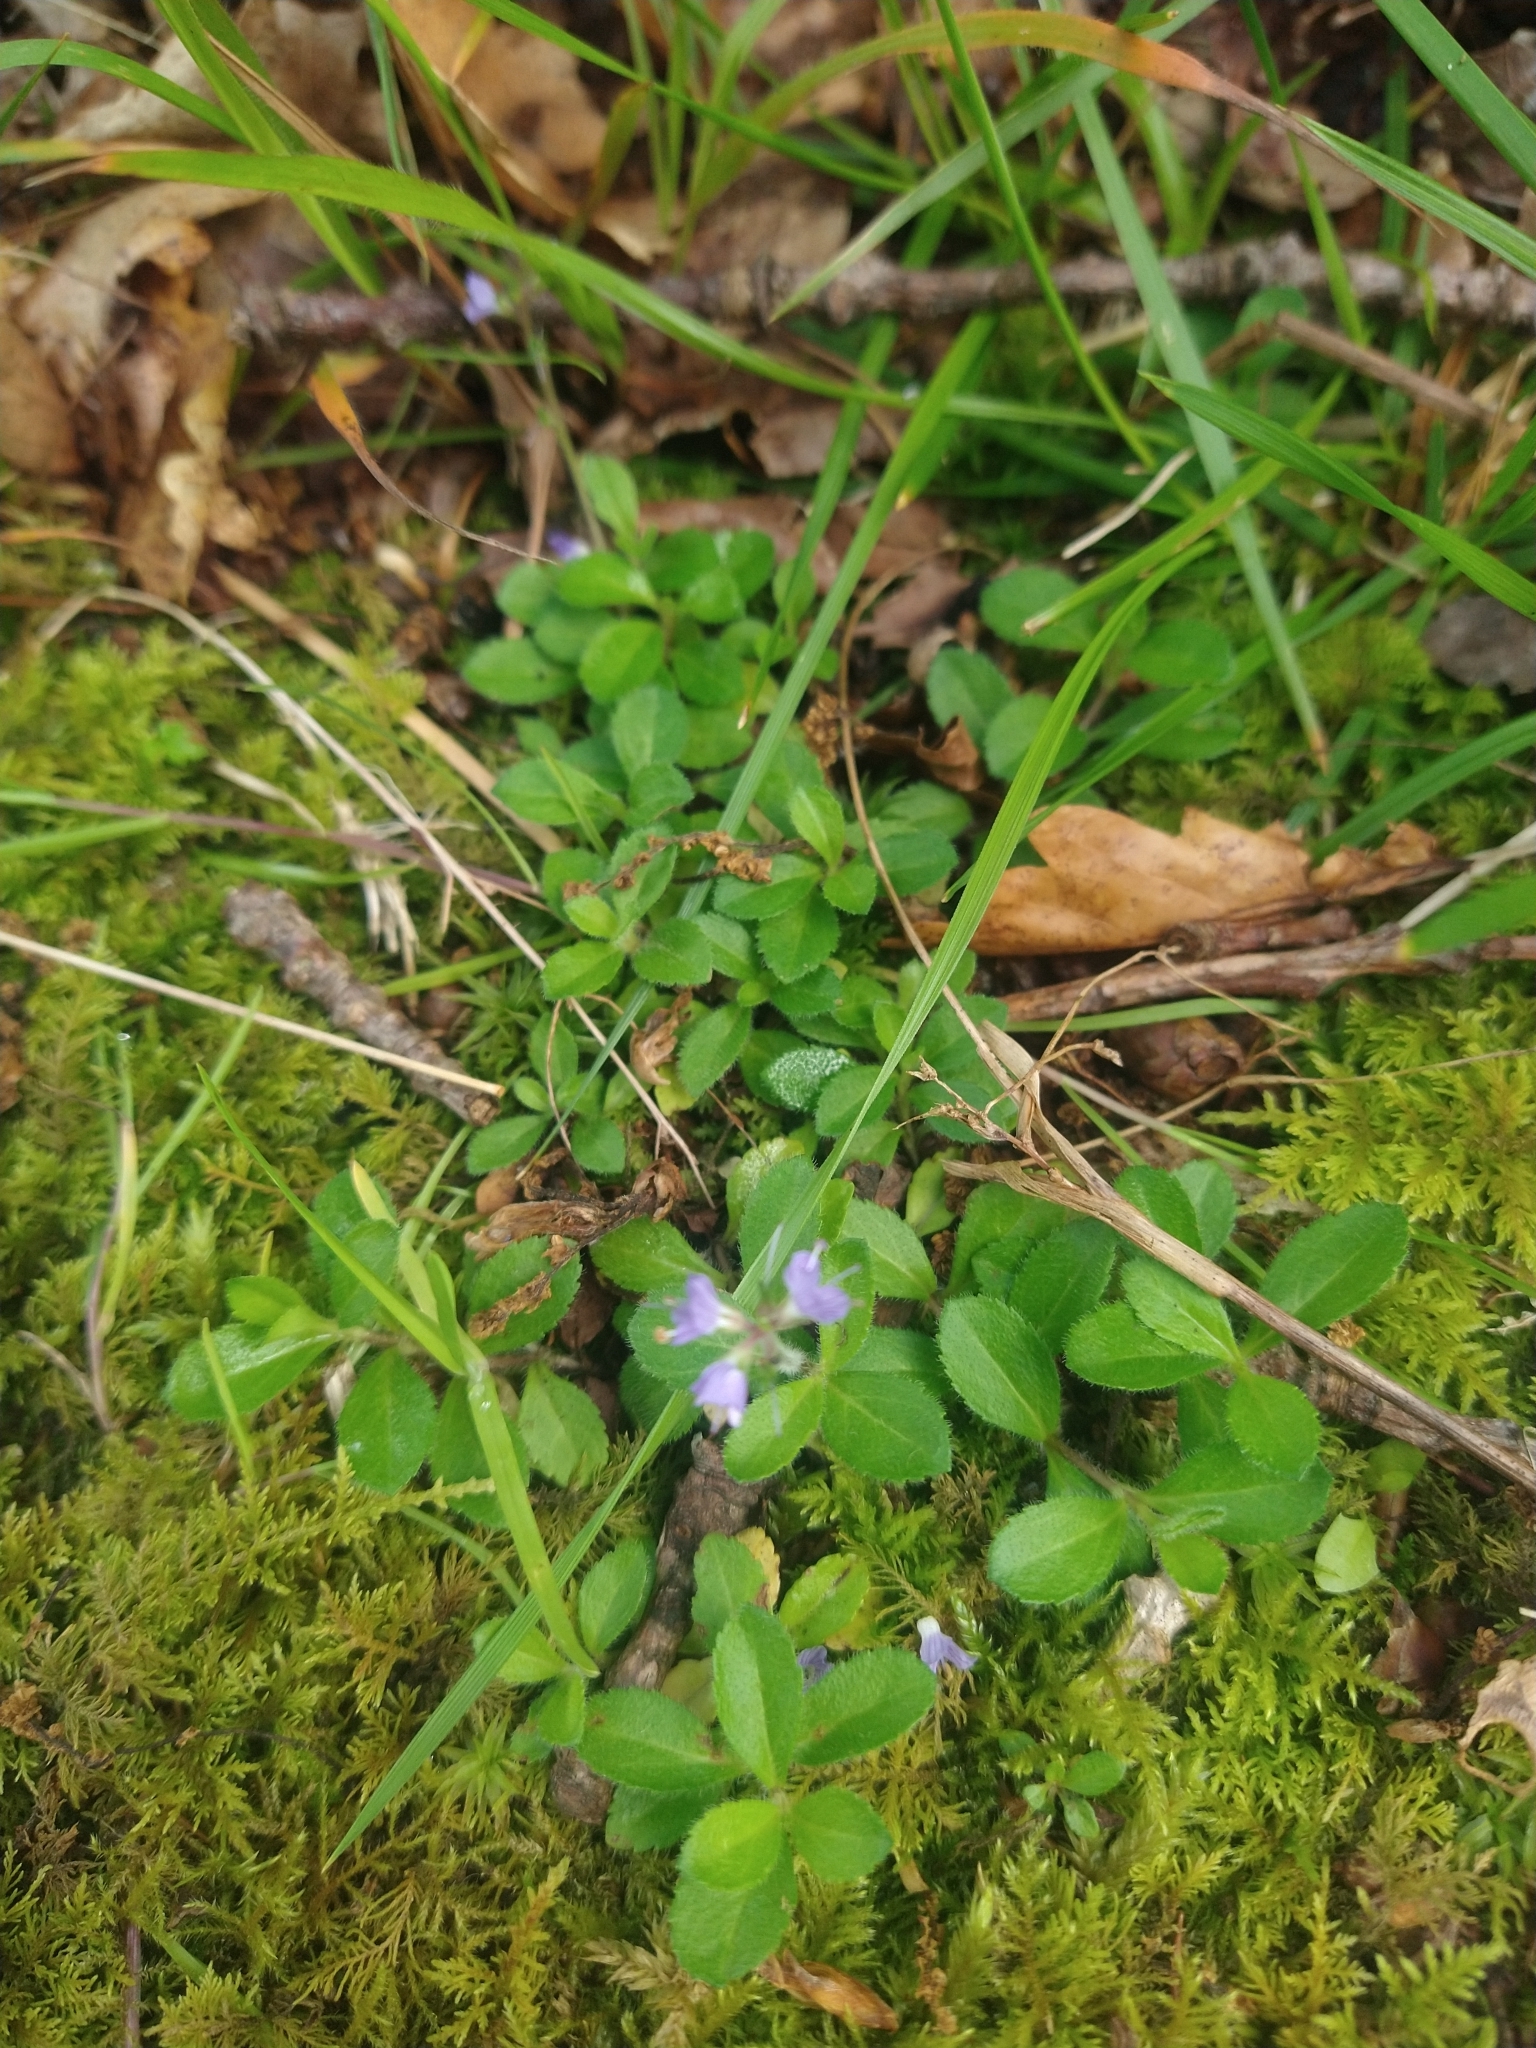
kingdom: Plantae
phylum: Tracheophyta
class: Magnoliopsida
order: Lamiales
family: Plantaginaceae
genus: Veronica
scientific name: Veronica officinalis
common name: Common speedwell
